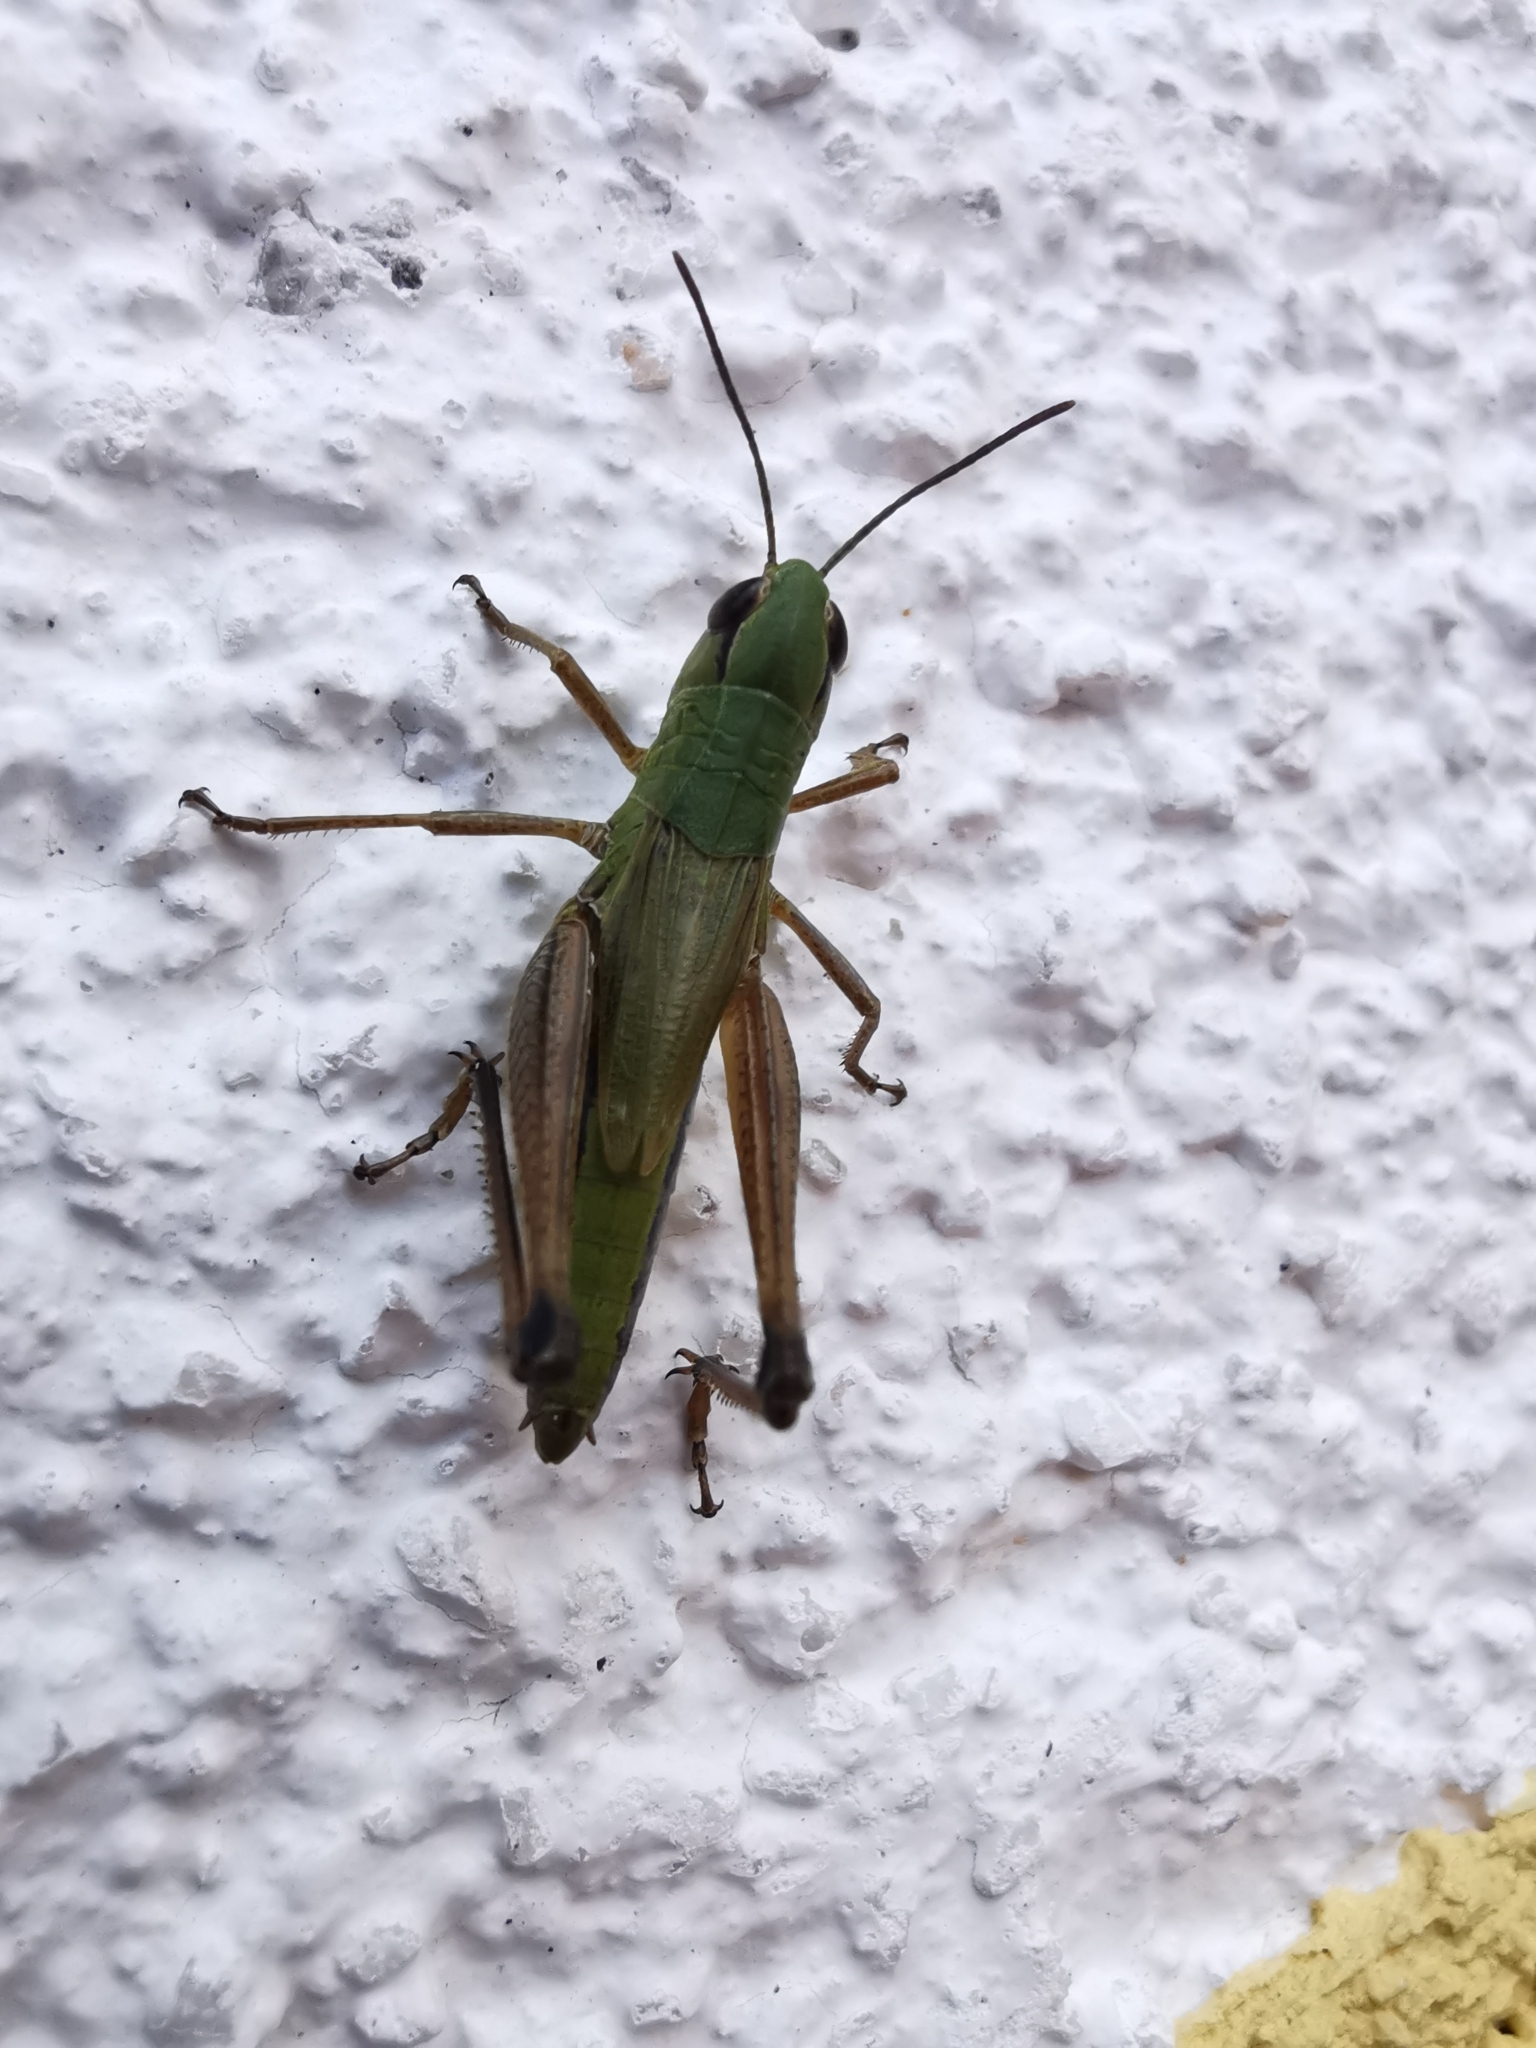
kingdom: Animalia
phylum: Arthropoda
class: Insecta
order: Orthoptera
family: Acrididae
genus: Pseudochorthippus
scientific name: Pseudochorthippus parallelus
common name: Meadow grasshopper
